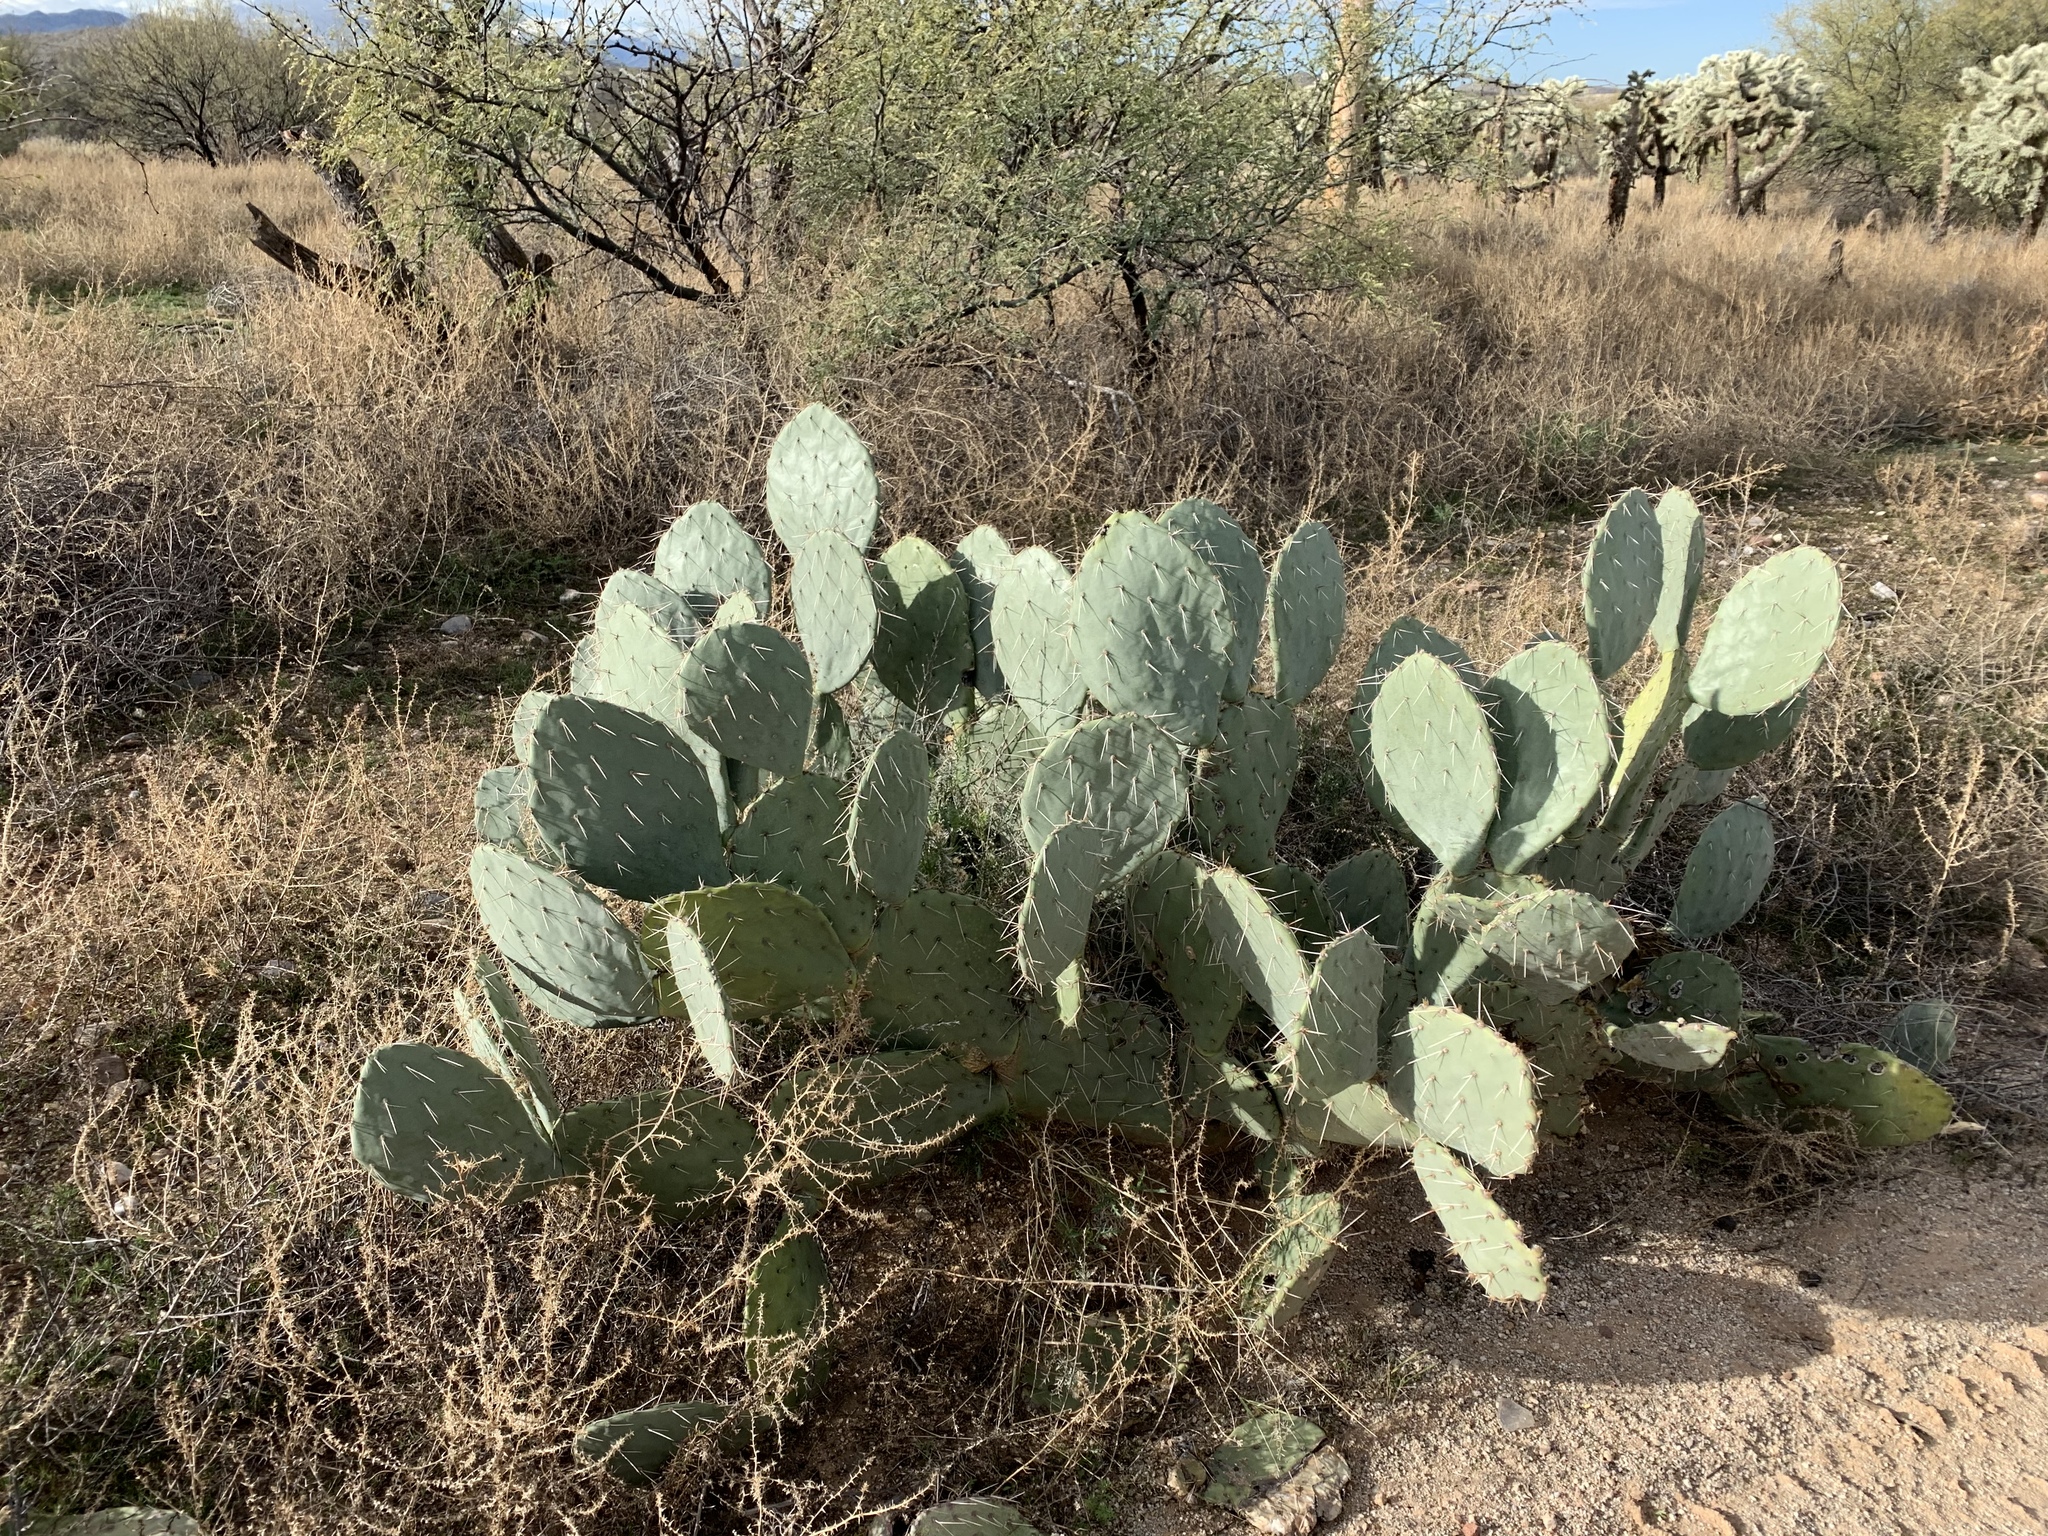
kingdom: Plantae
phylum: Tracheophyta
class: Magnoliopsida
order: Caryophyllales
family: Cactaceae
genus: Opuntia
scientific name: Opuntia engelmannii
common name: Cactus-apple
